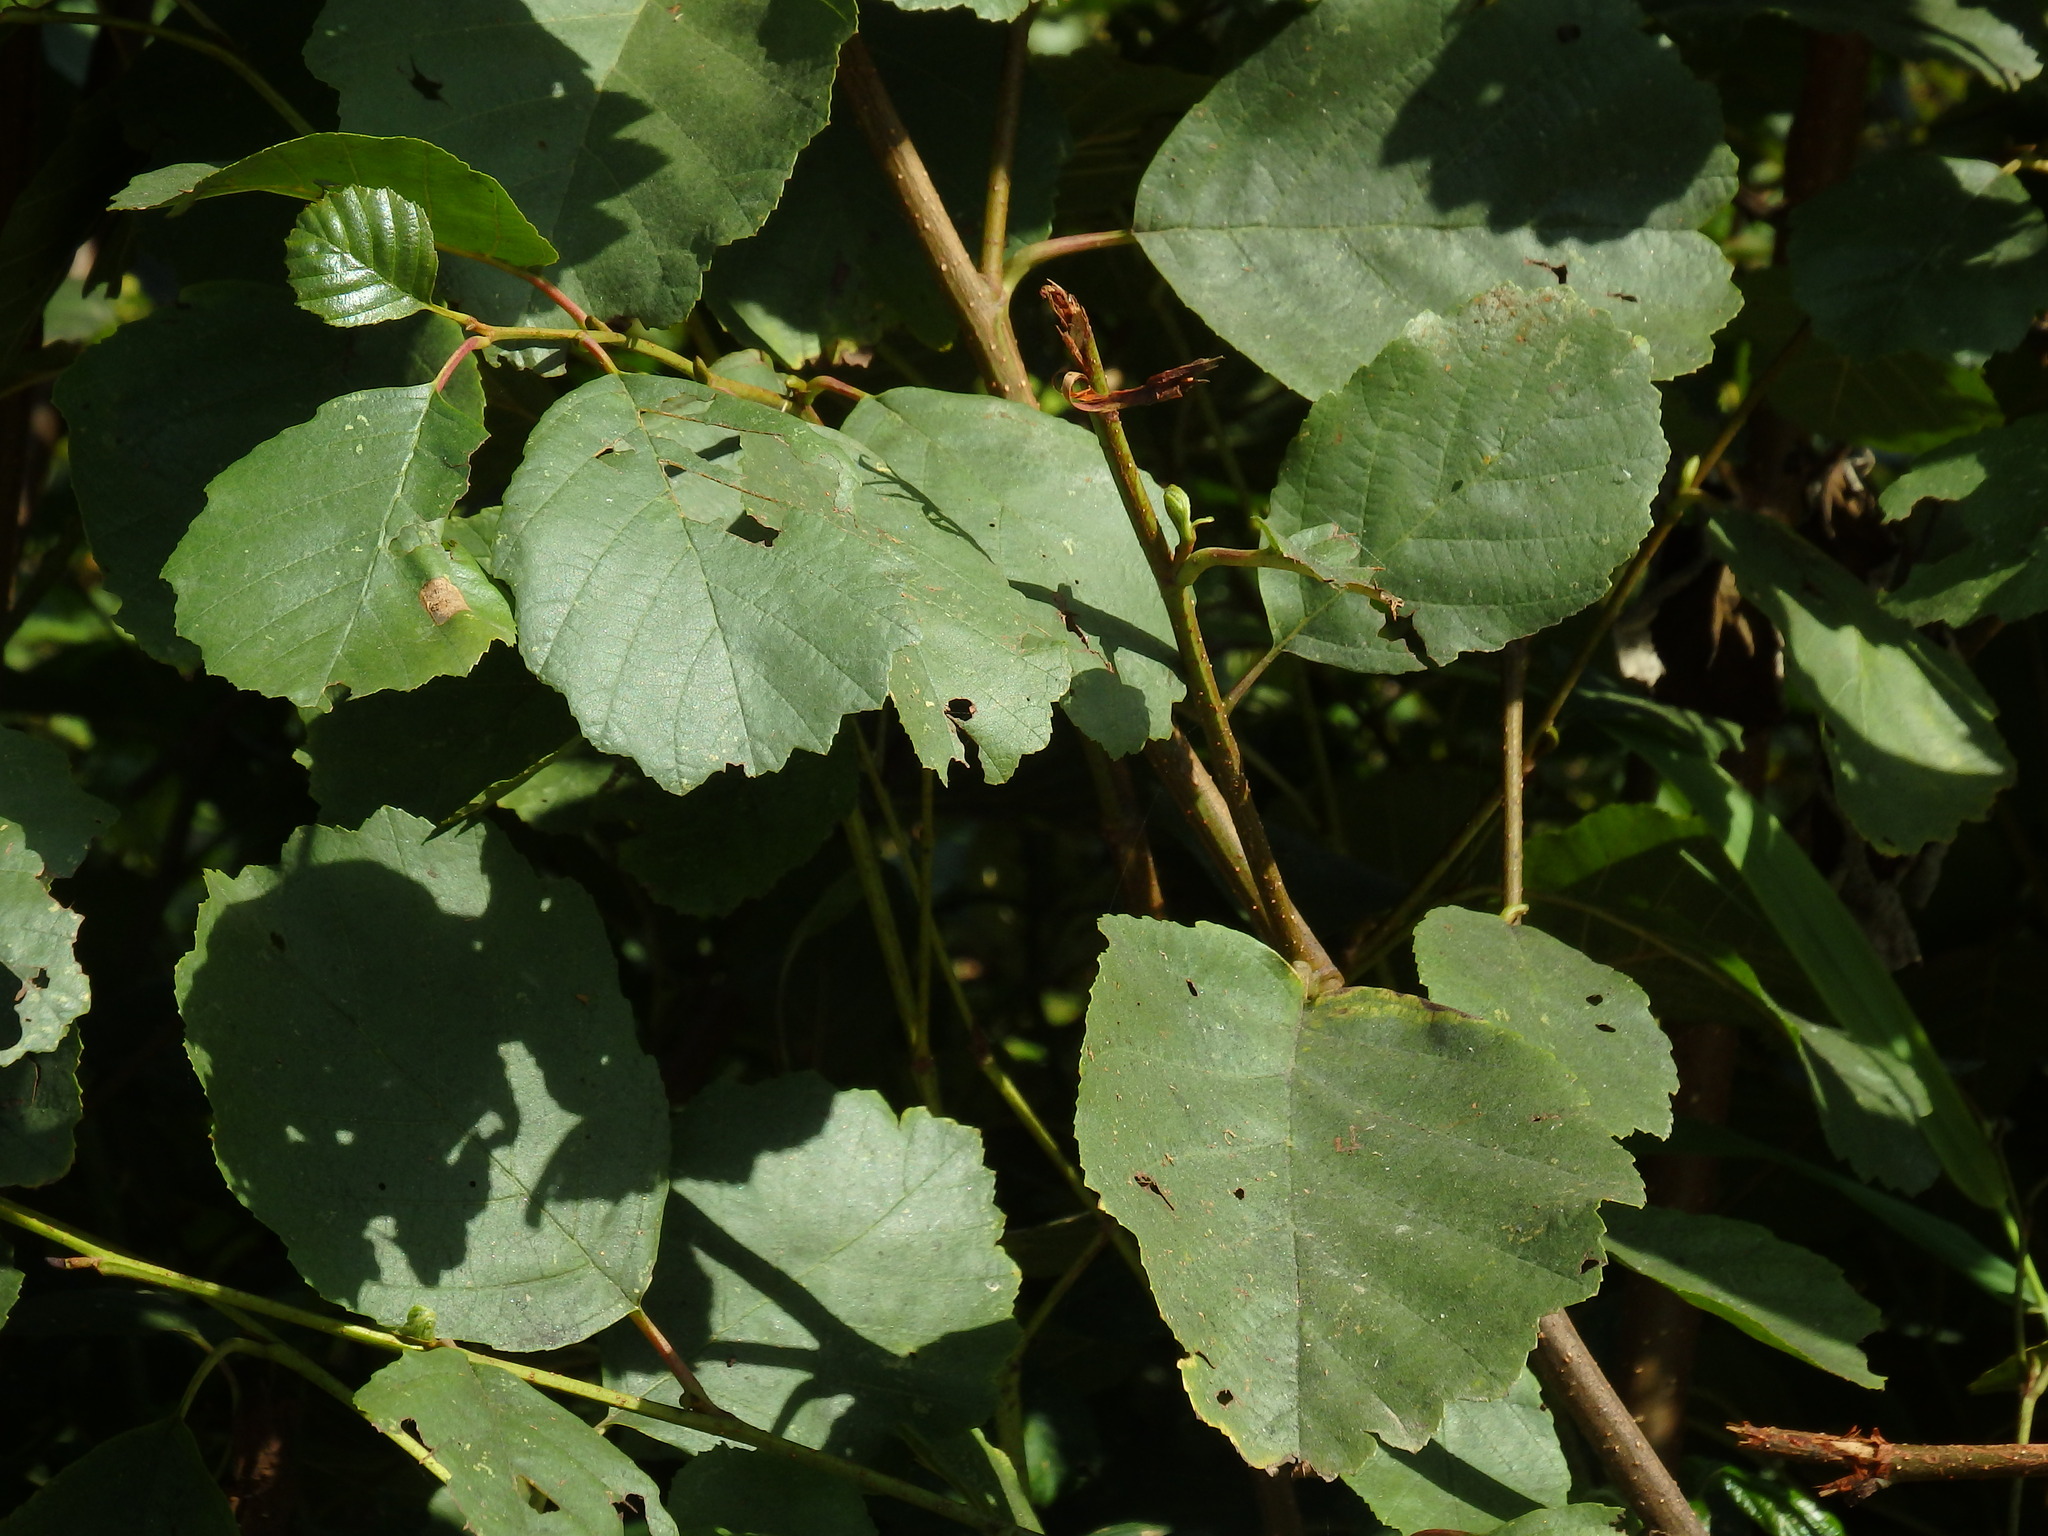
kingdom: Plantae
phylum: Tracheophyta
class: Magnoliopsida
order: Fagales
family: Betulaceae
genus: Alnus
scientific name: Alnus lusitanica
